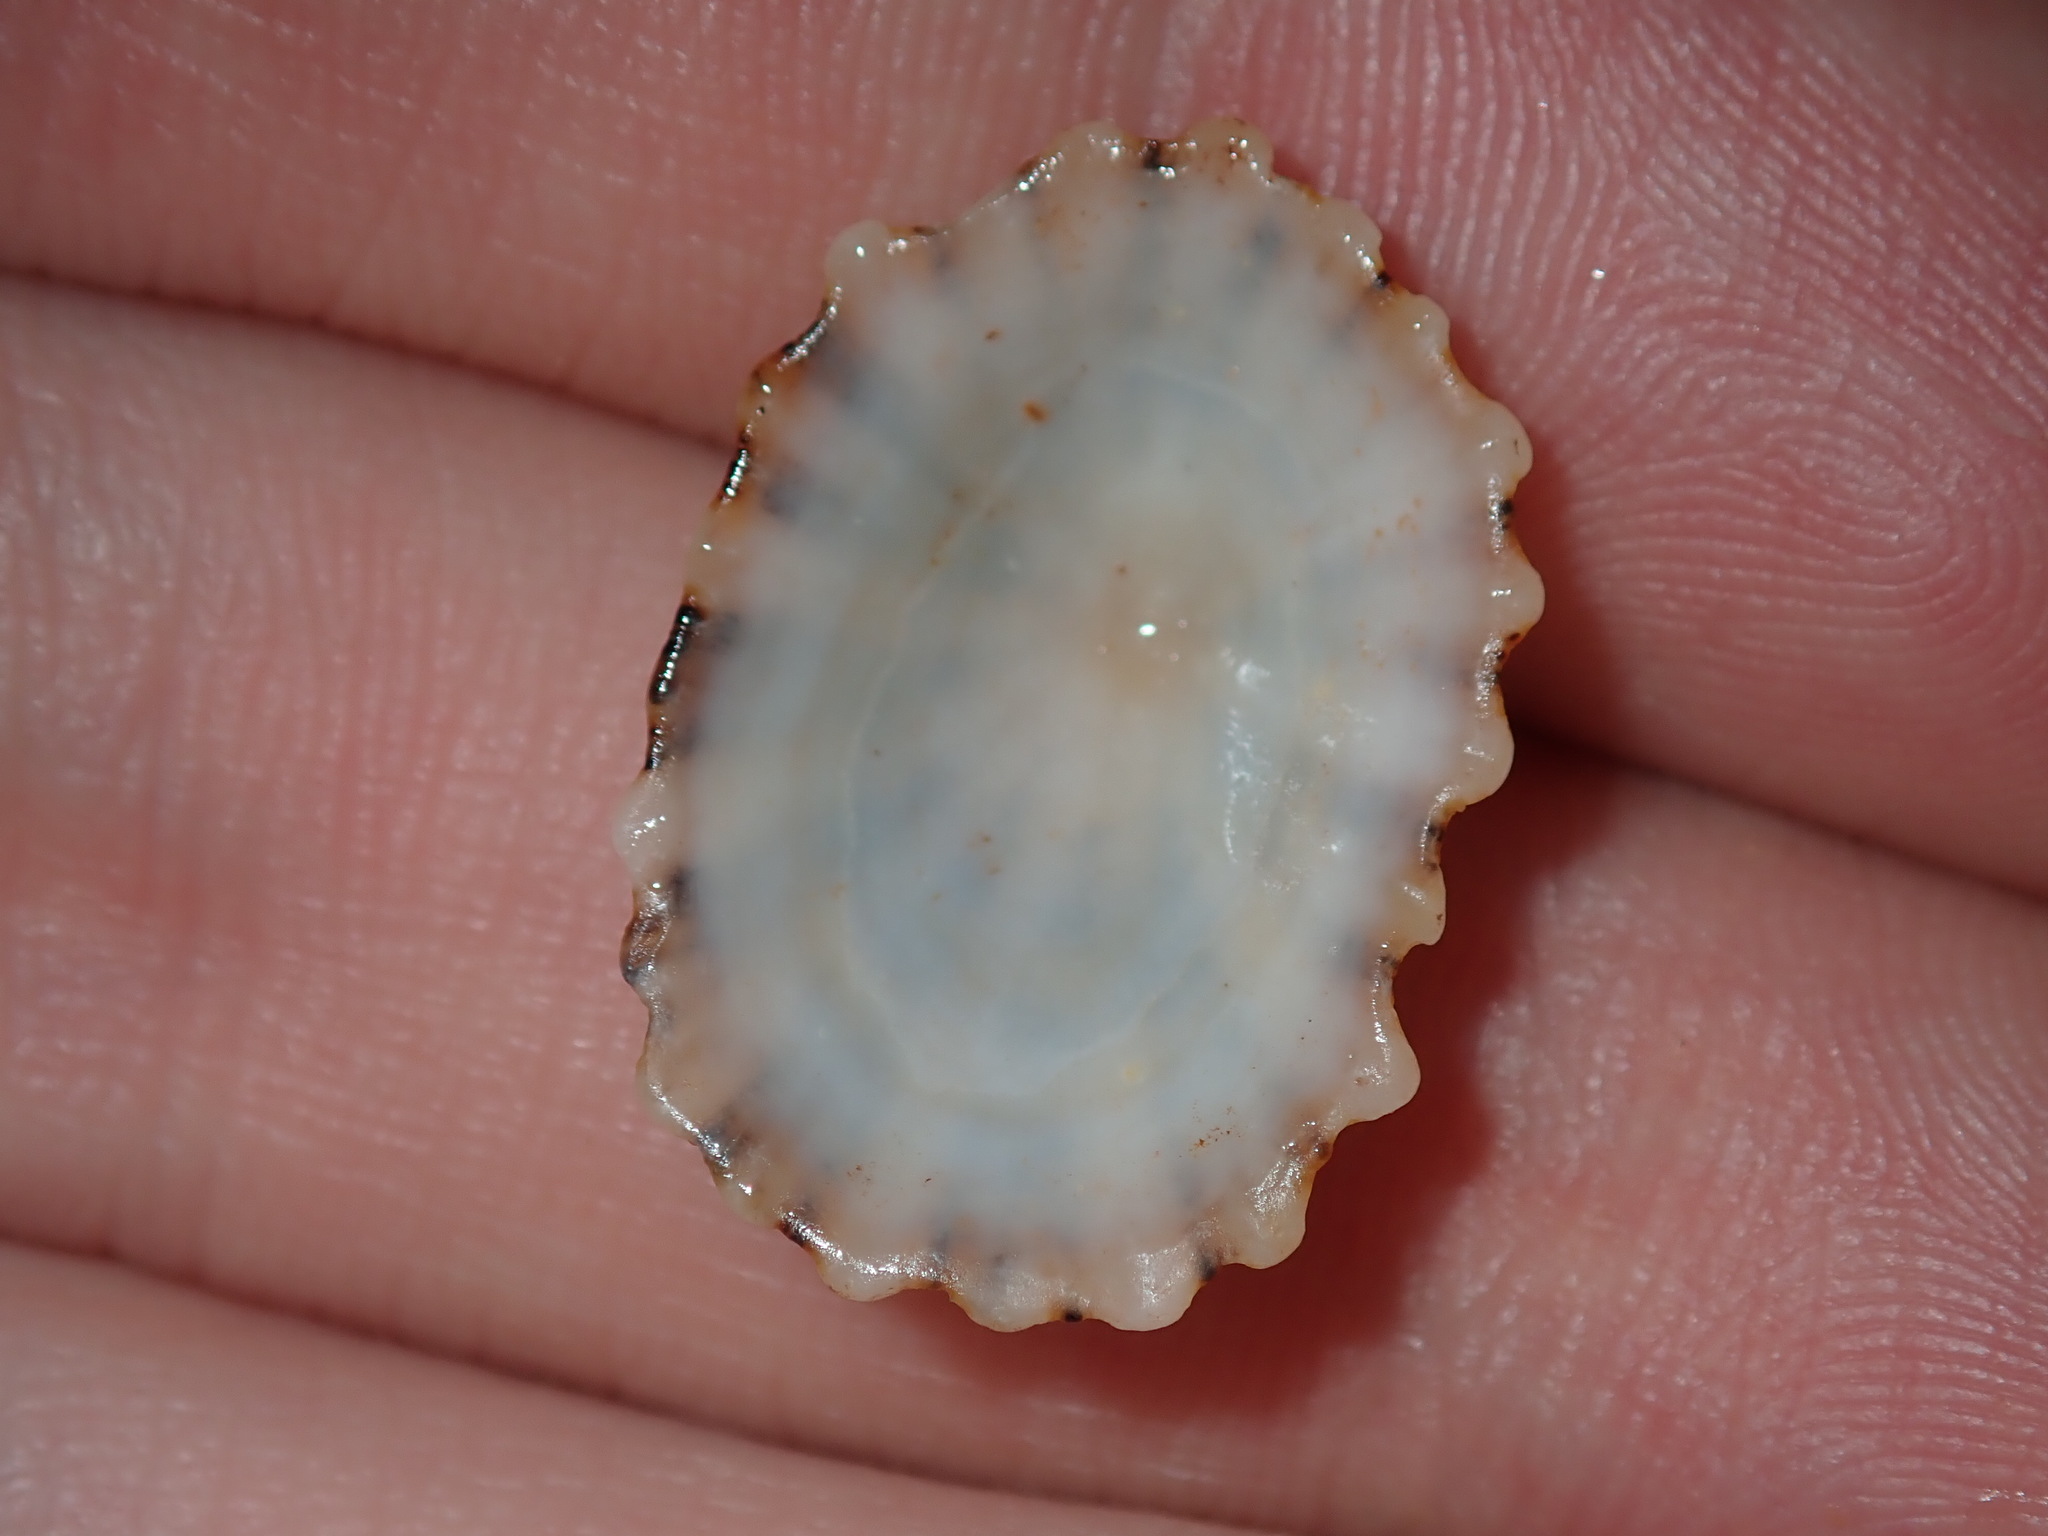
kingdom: Animalia
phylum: Mollusca
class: Gastropoda
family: Patellidae
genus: Scutellastra
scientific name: Scutellastra peronii
